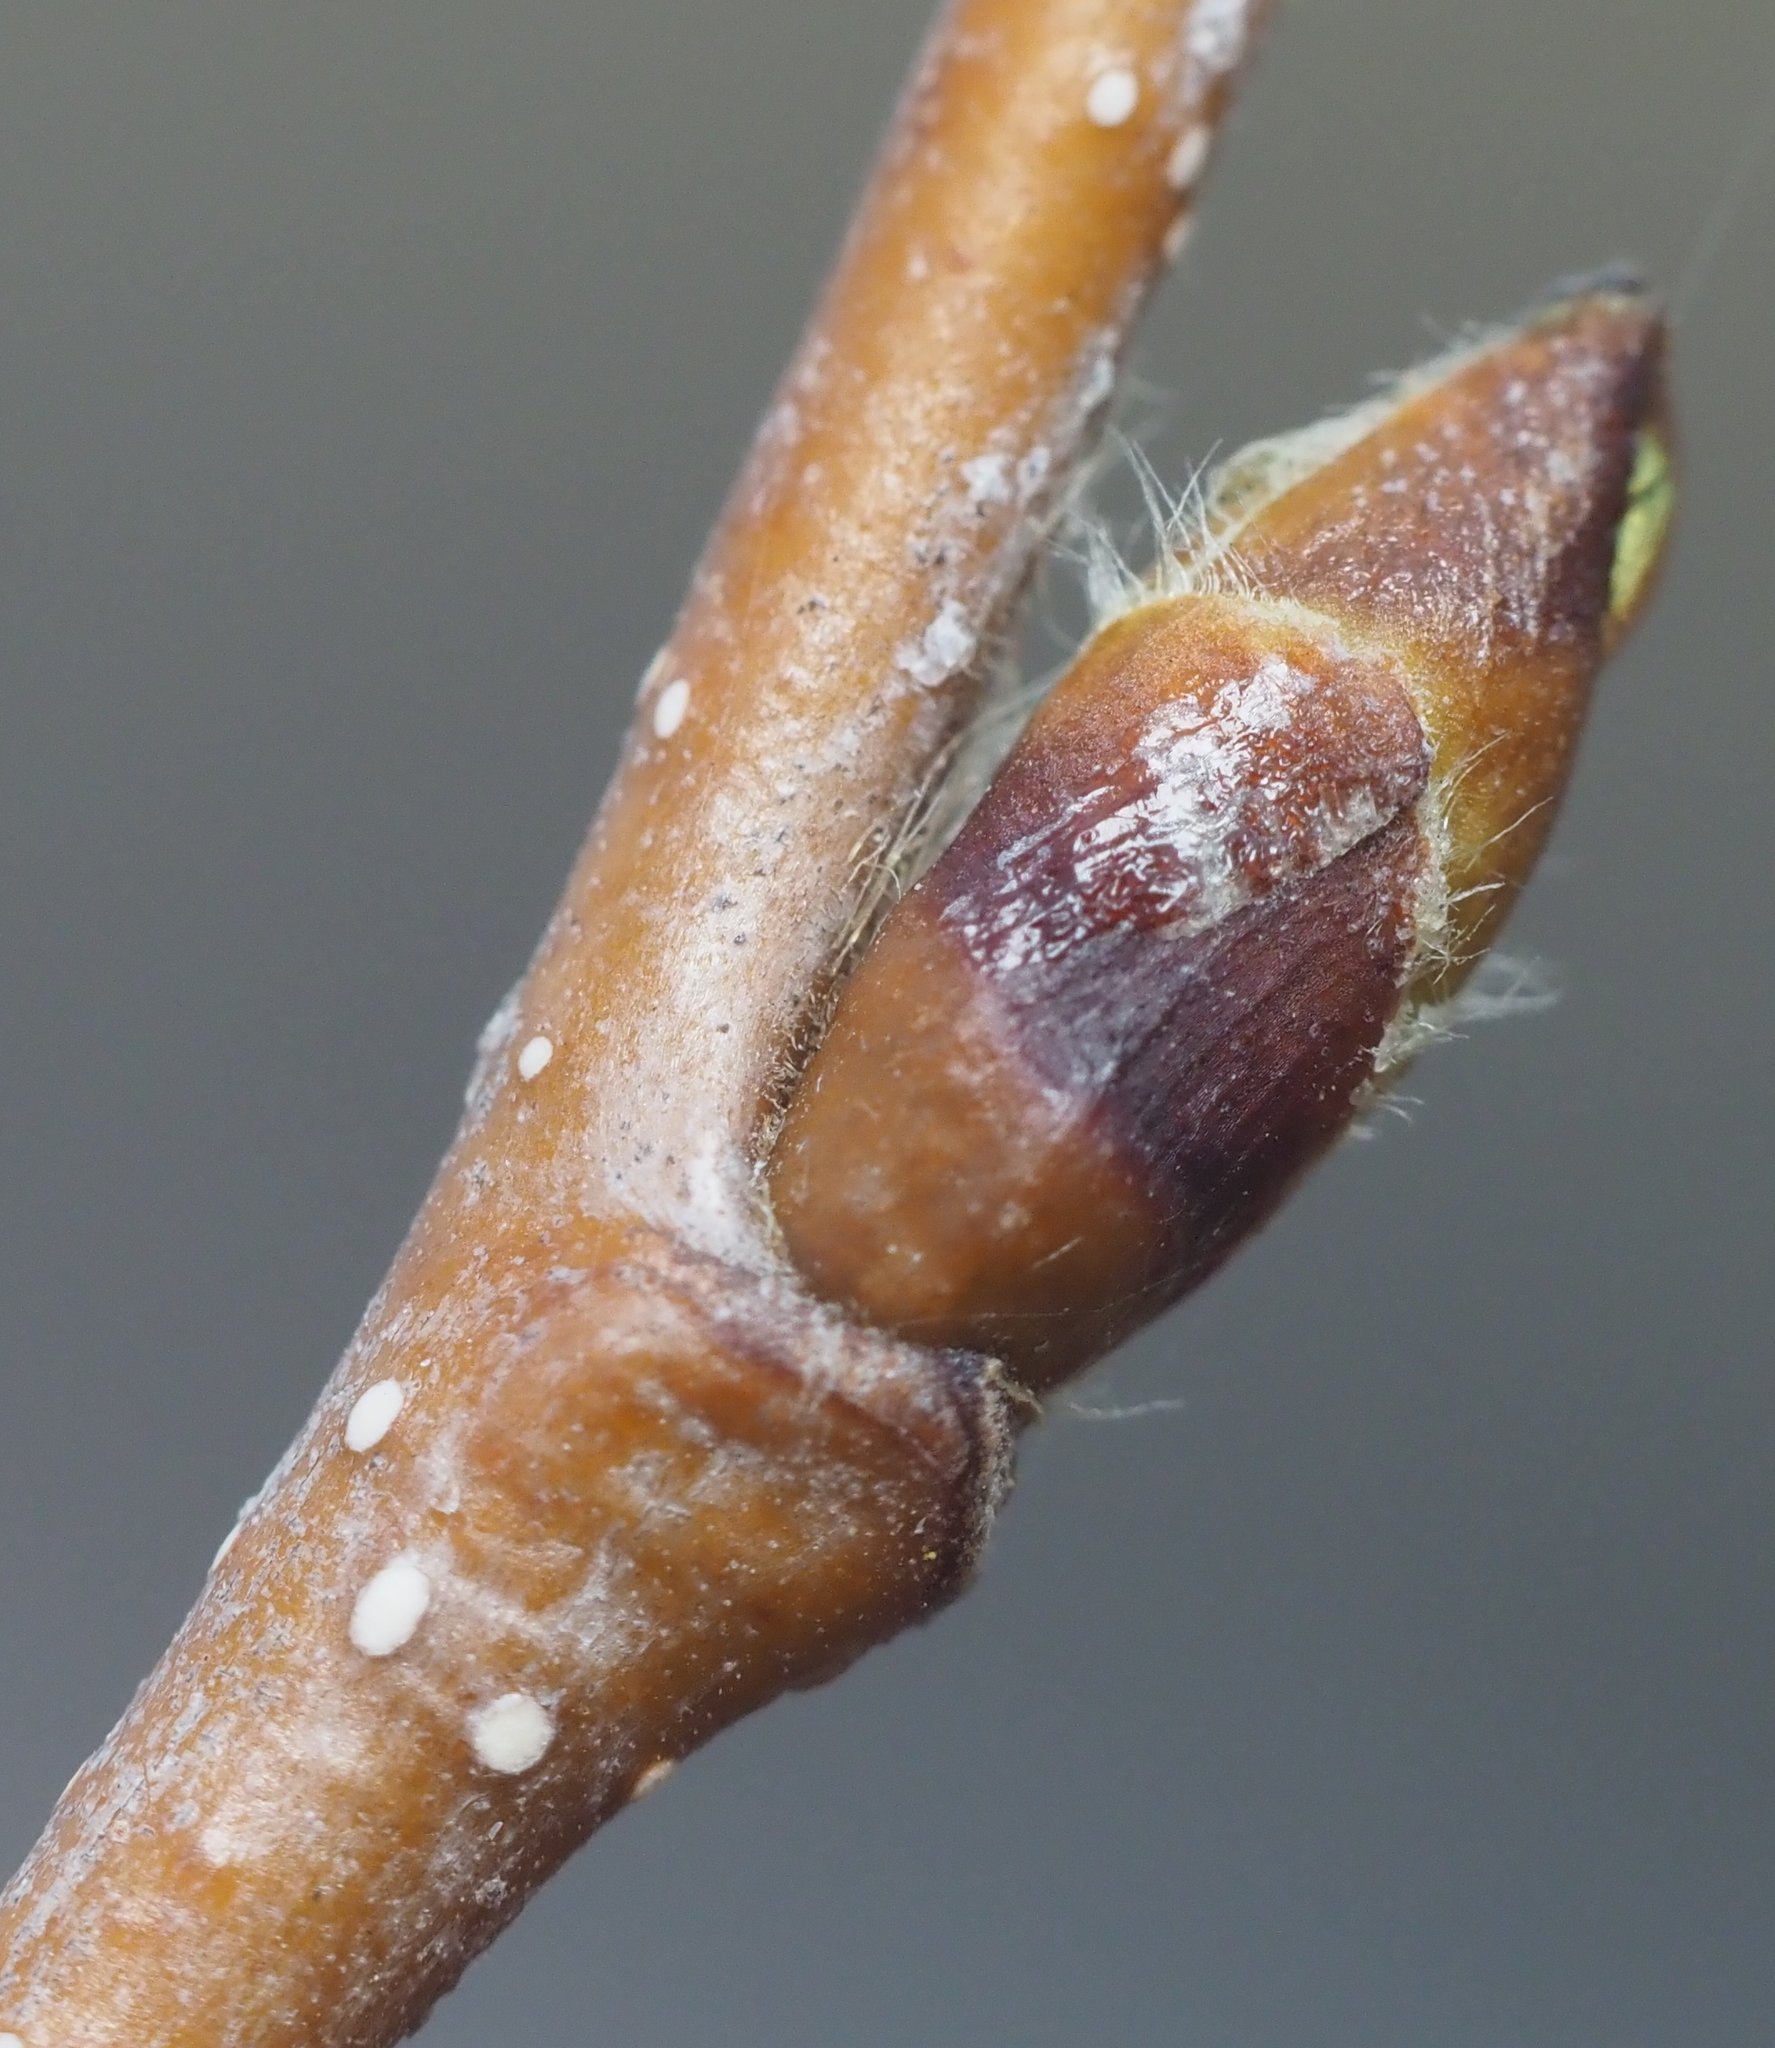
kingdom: Plantae
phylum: Tracheophyta
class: Magnoliopsida
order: Fagales
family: Betulaceae
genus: Betula
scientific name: Betula papyrifera
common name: Paper birch
